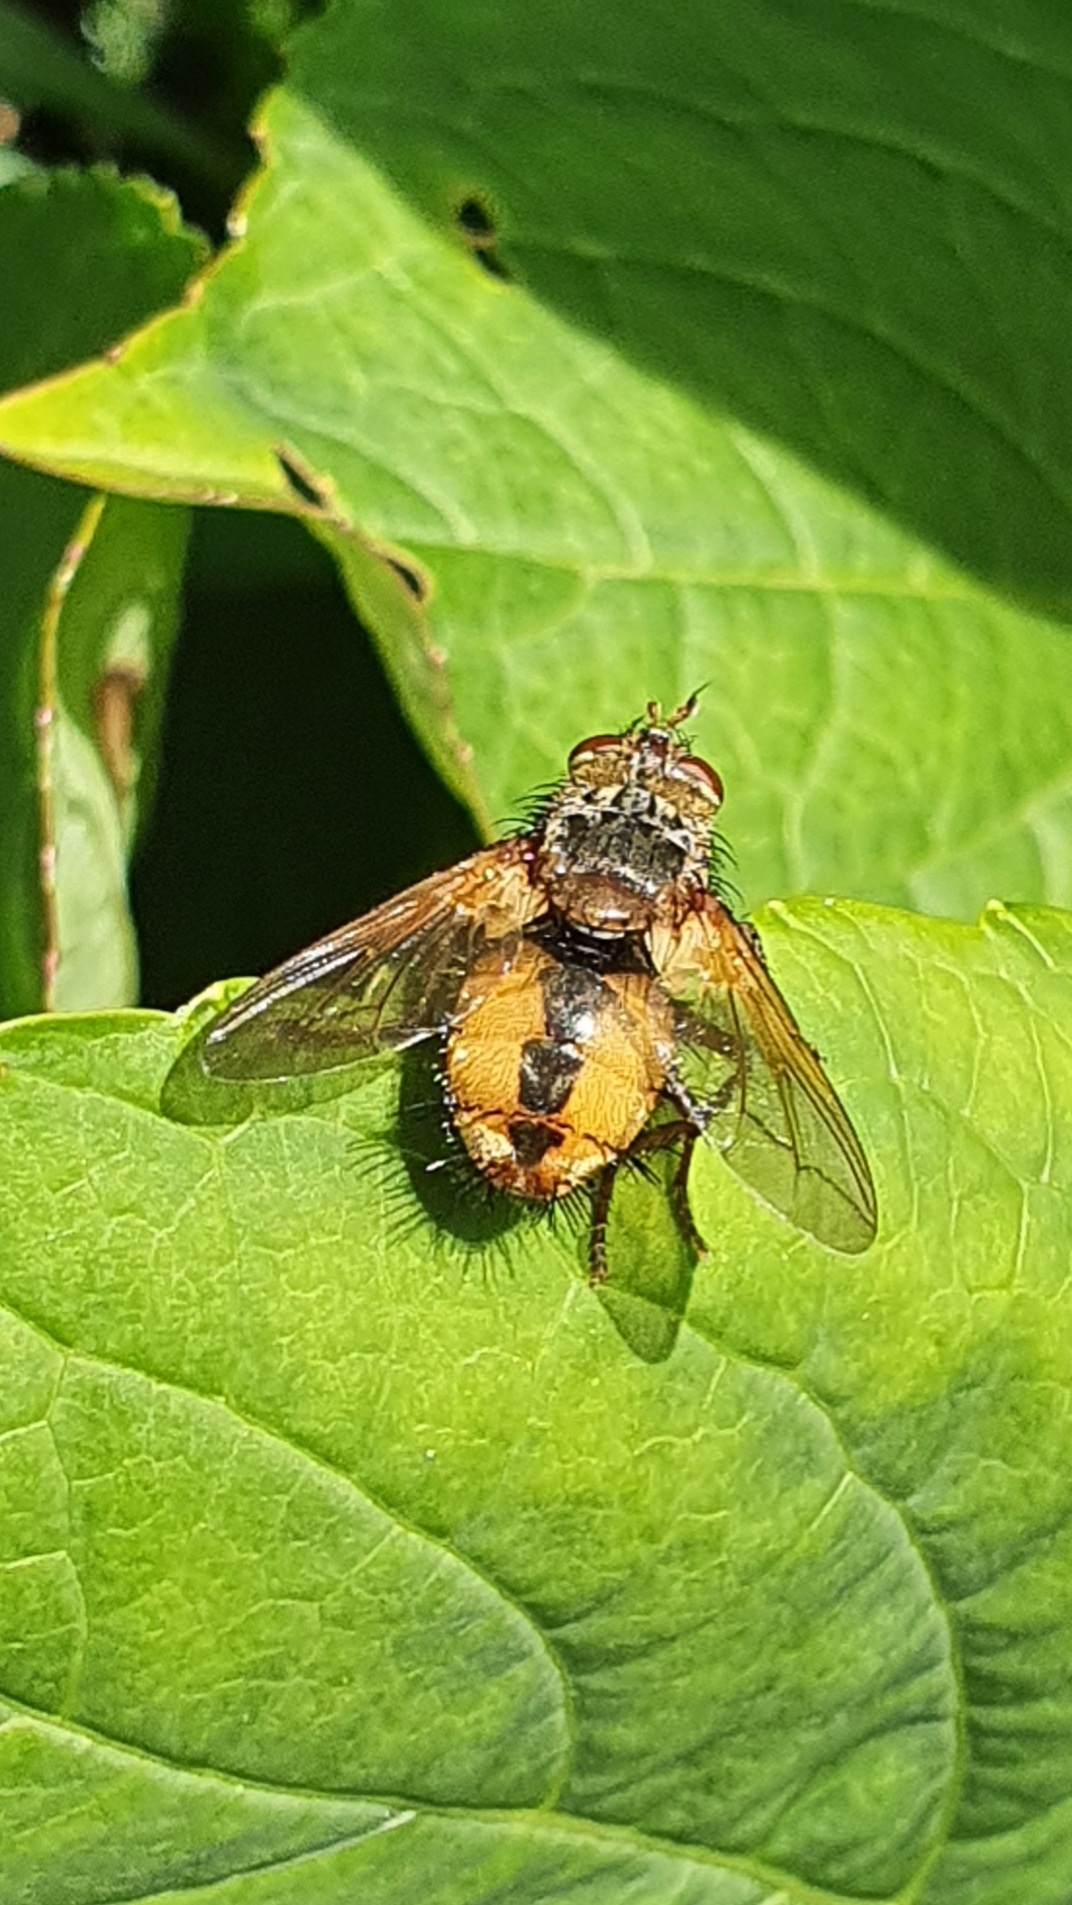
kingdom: Animalia
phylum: Arthropoda
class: Insecta
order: Diptera
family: Tachinidae
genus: Tachina
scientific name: Tachina fera
